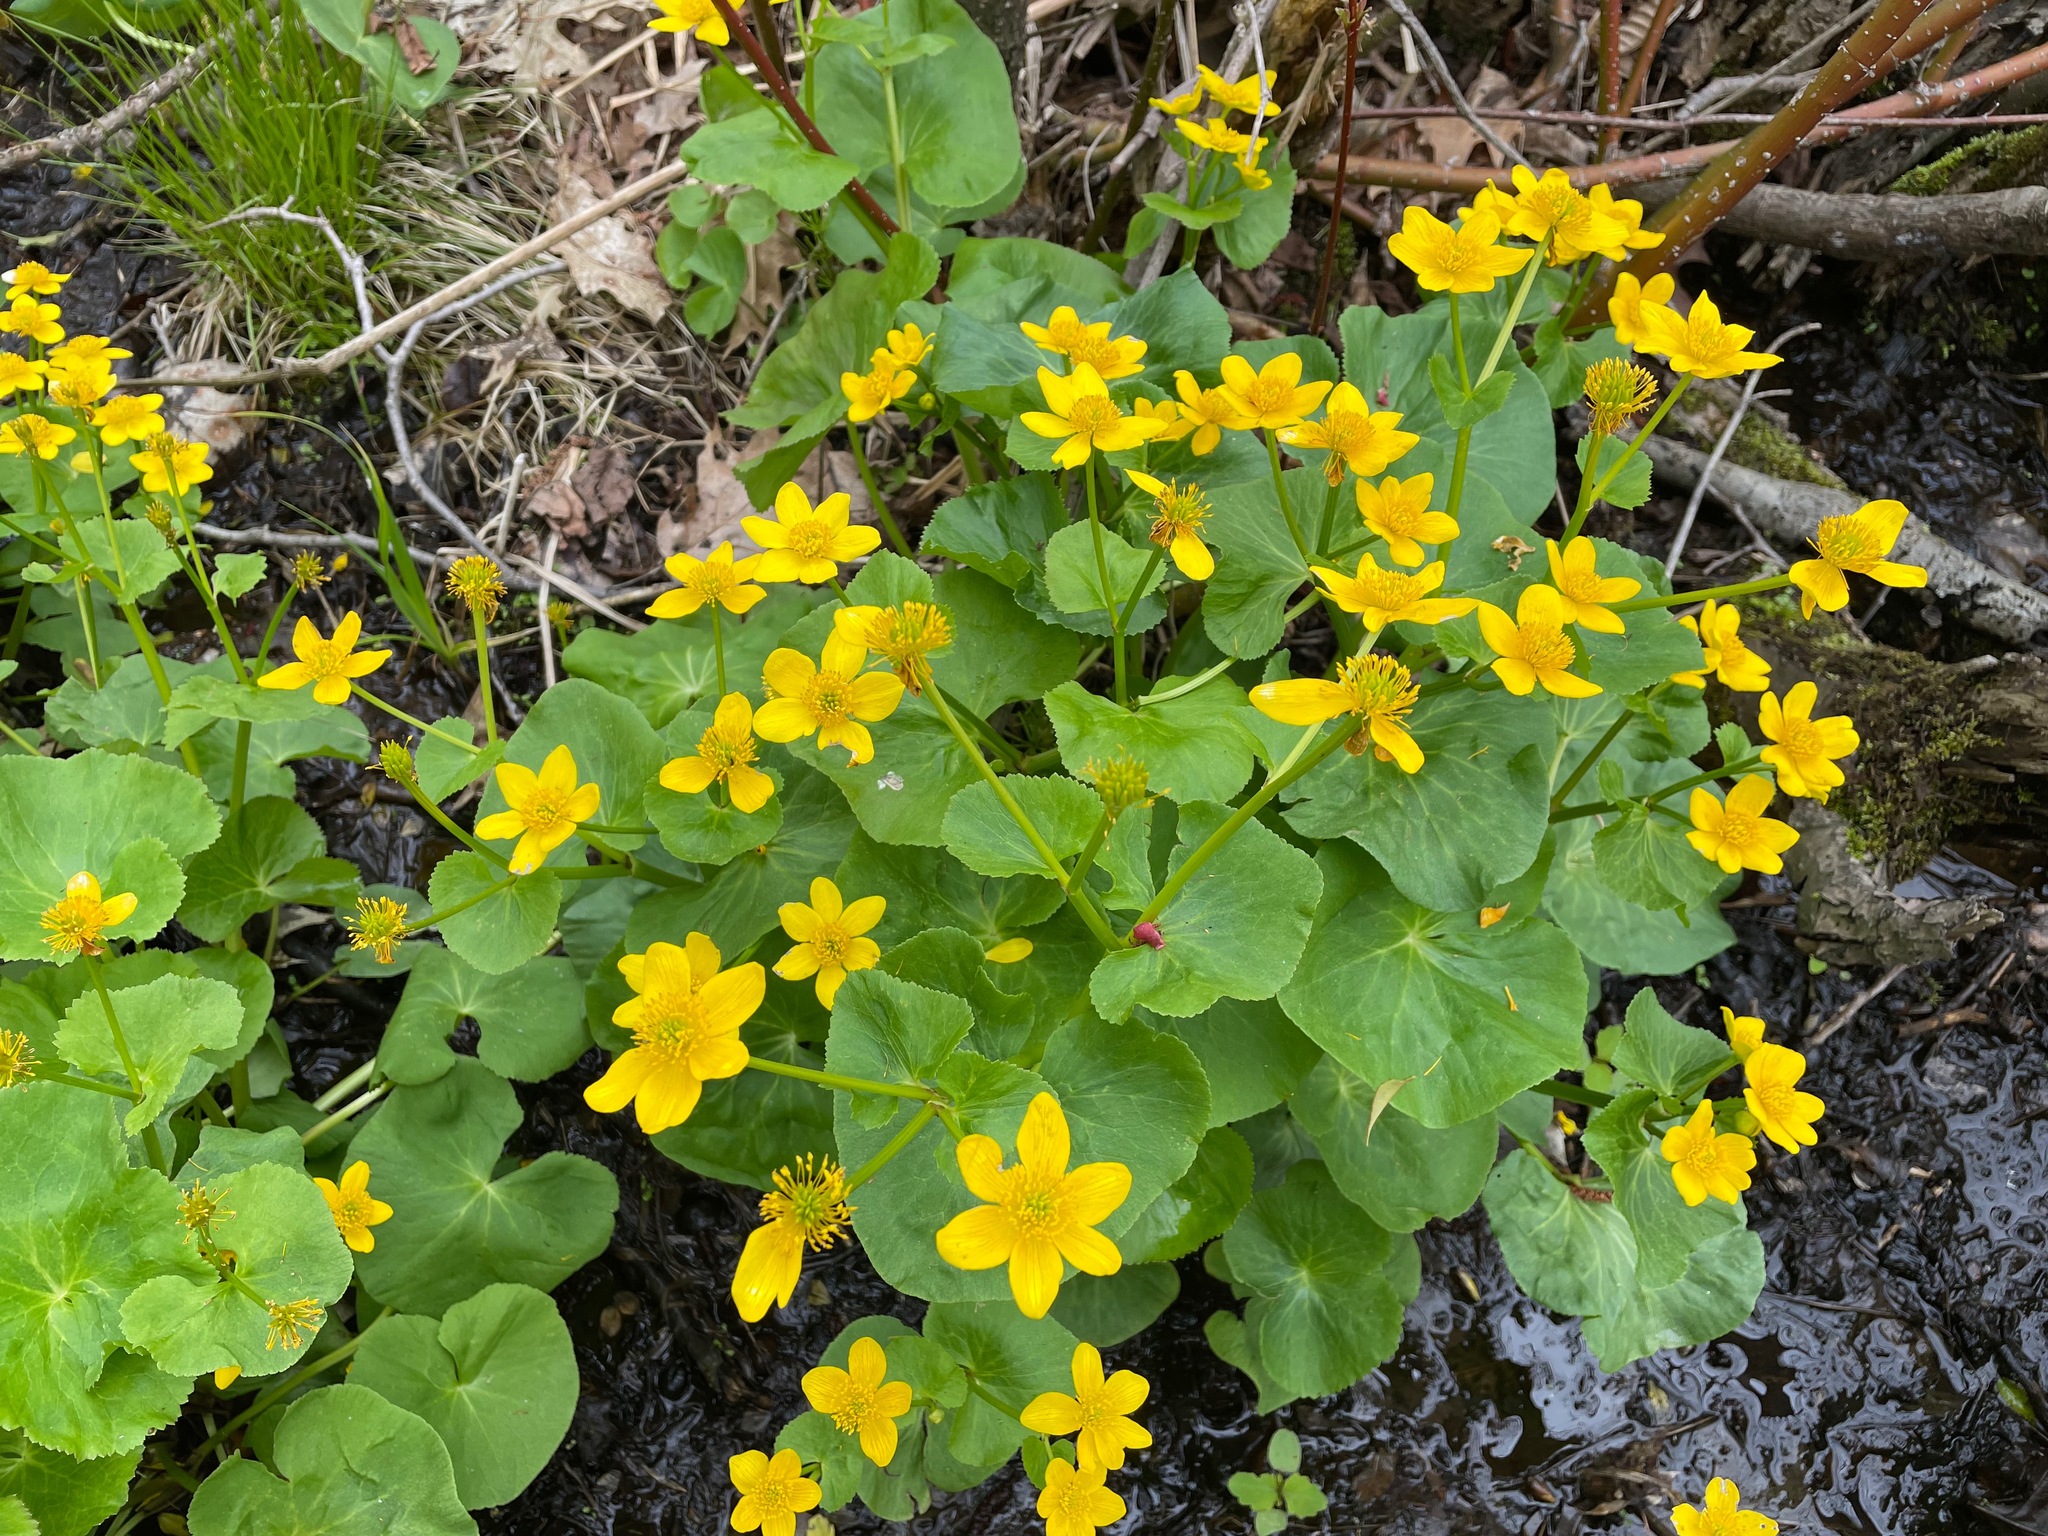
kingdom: Plantae
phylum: Tracheophyta
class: Magnoliopsida
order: Ranunculales
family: Ranunculaceae
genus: Caltha
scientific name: Caltha palustris
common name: Marsh marigold
